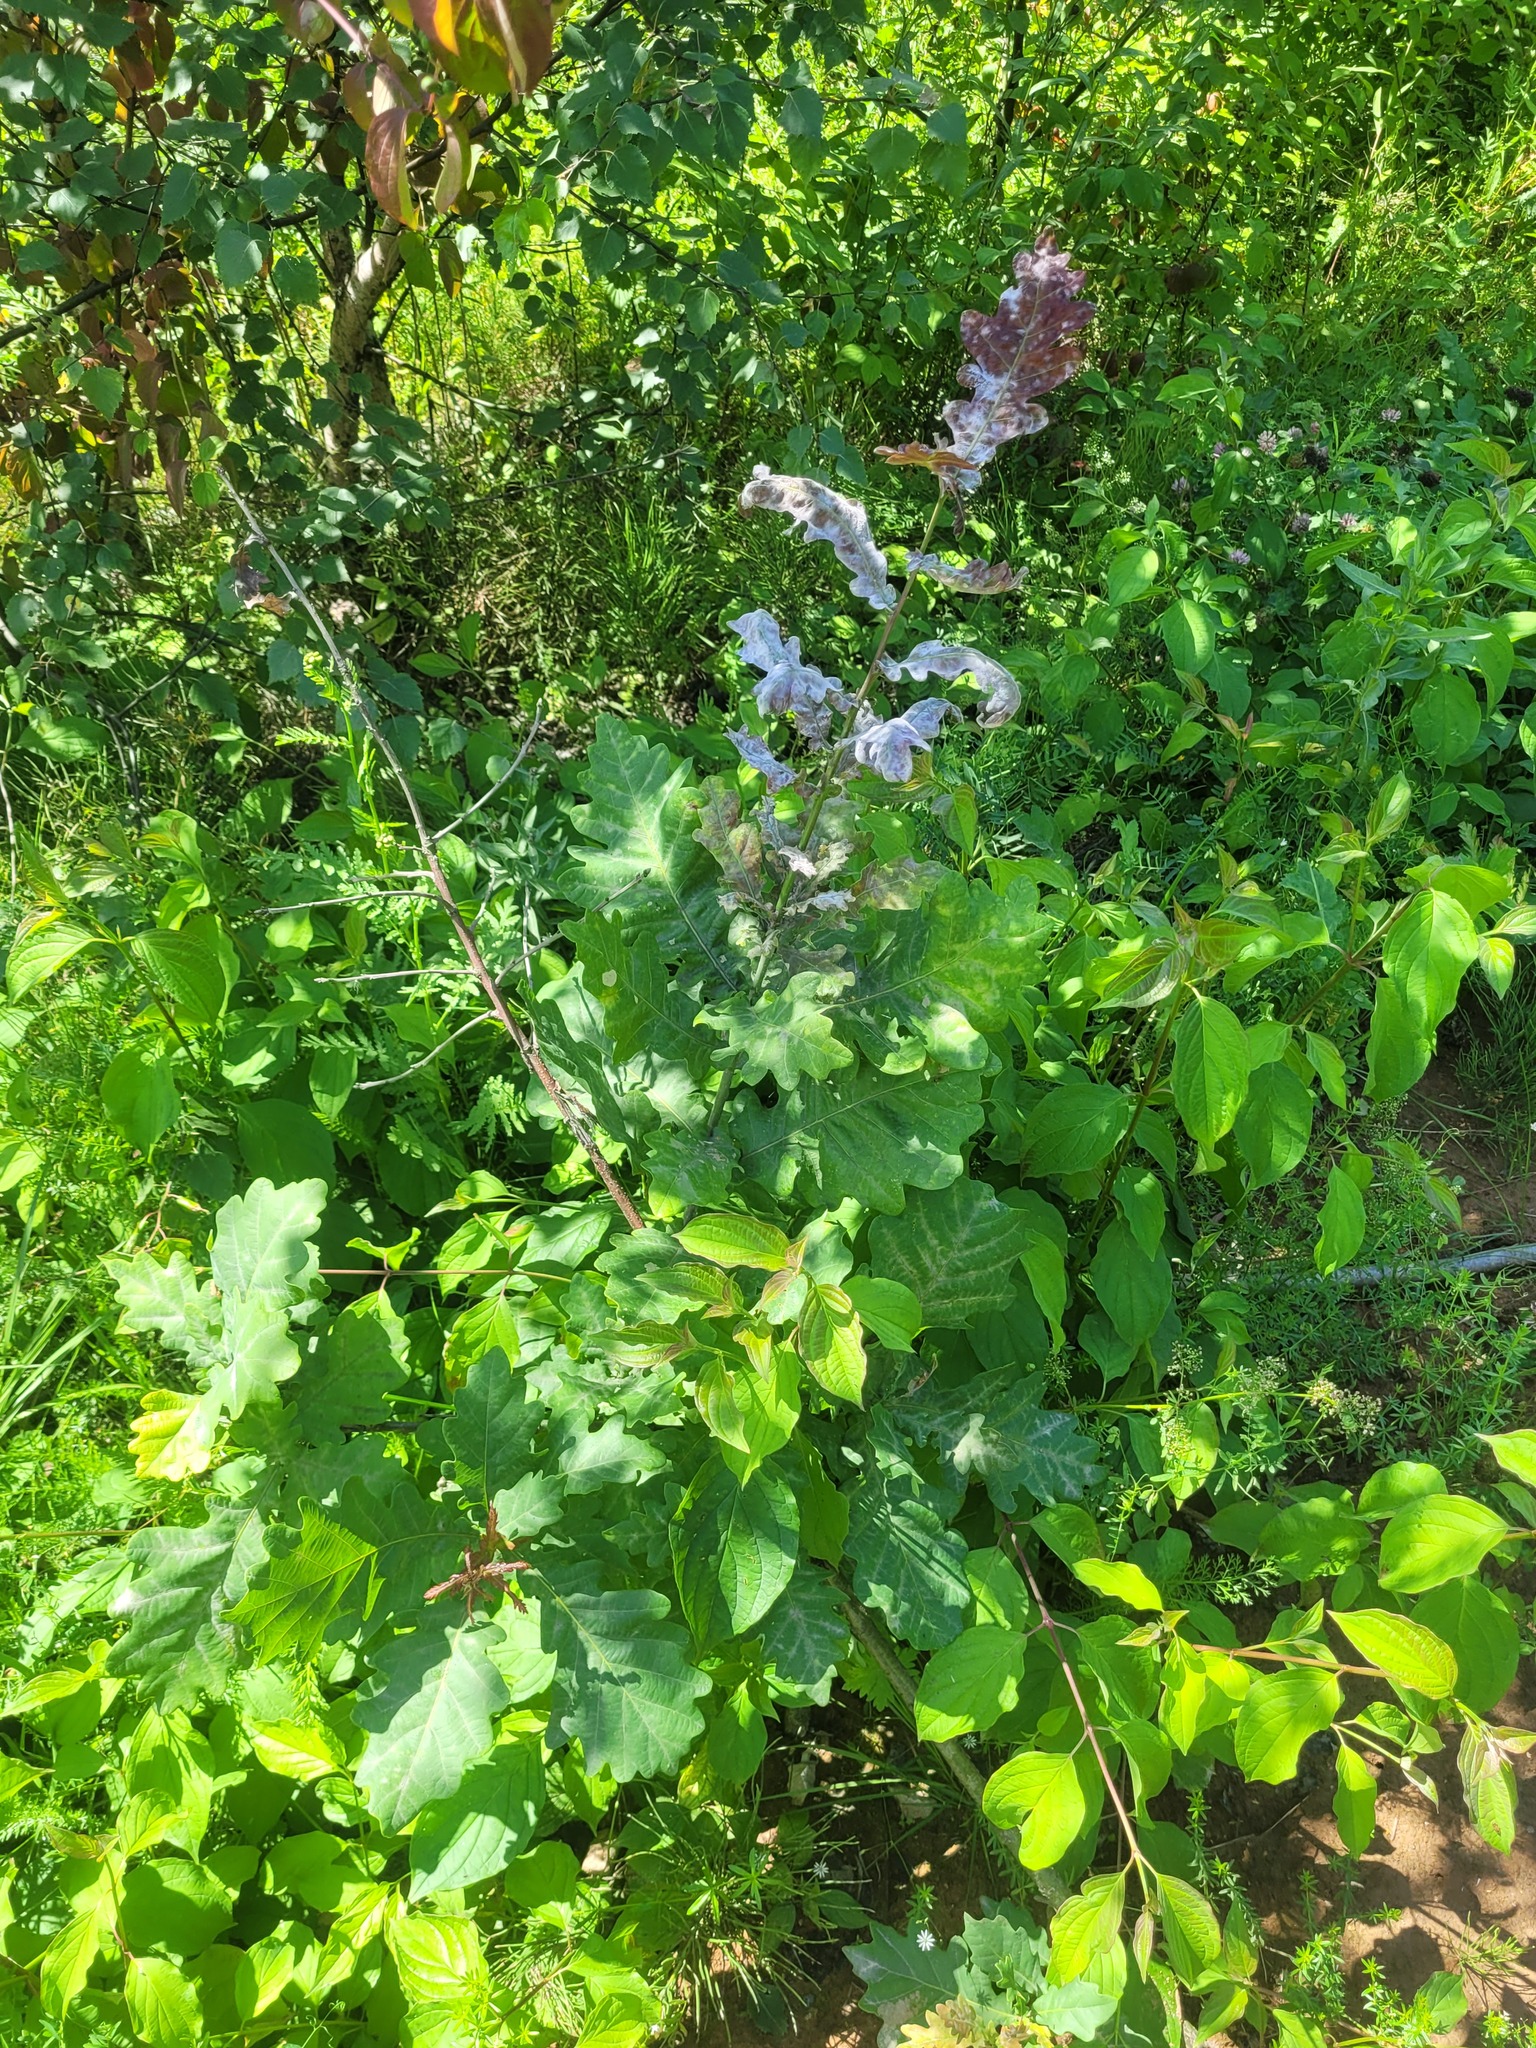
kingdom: Plantae
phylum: Tracheophyta
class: Magnoliopsida
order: Fagales
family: Fagaceae
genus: Quercus
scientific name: Quercus robur
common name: Pedunculate oak
